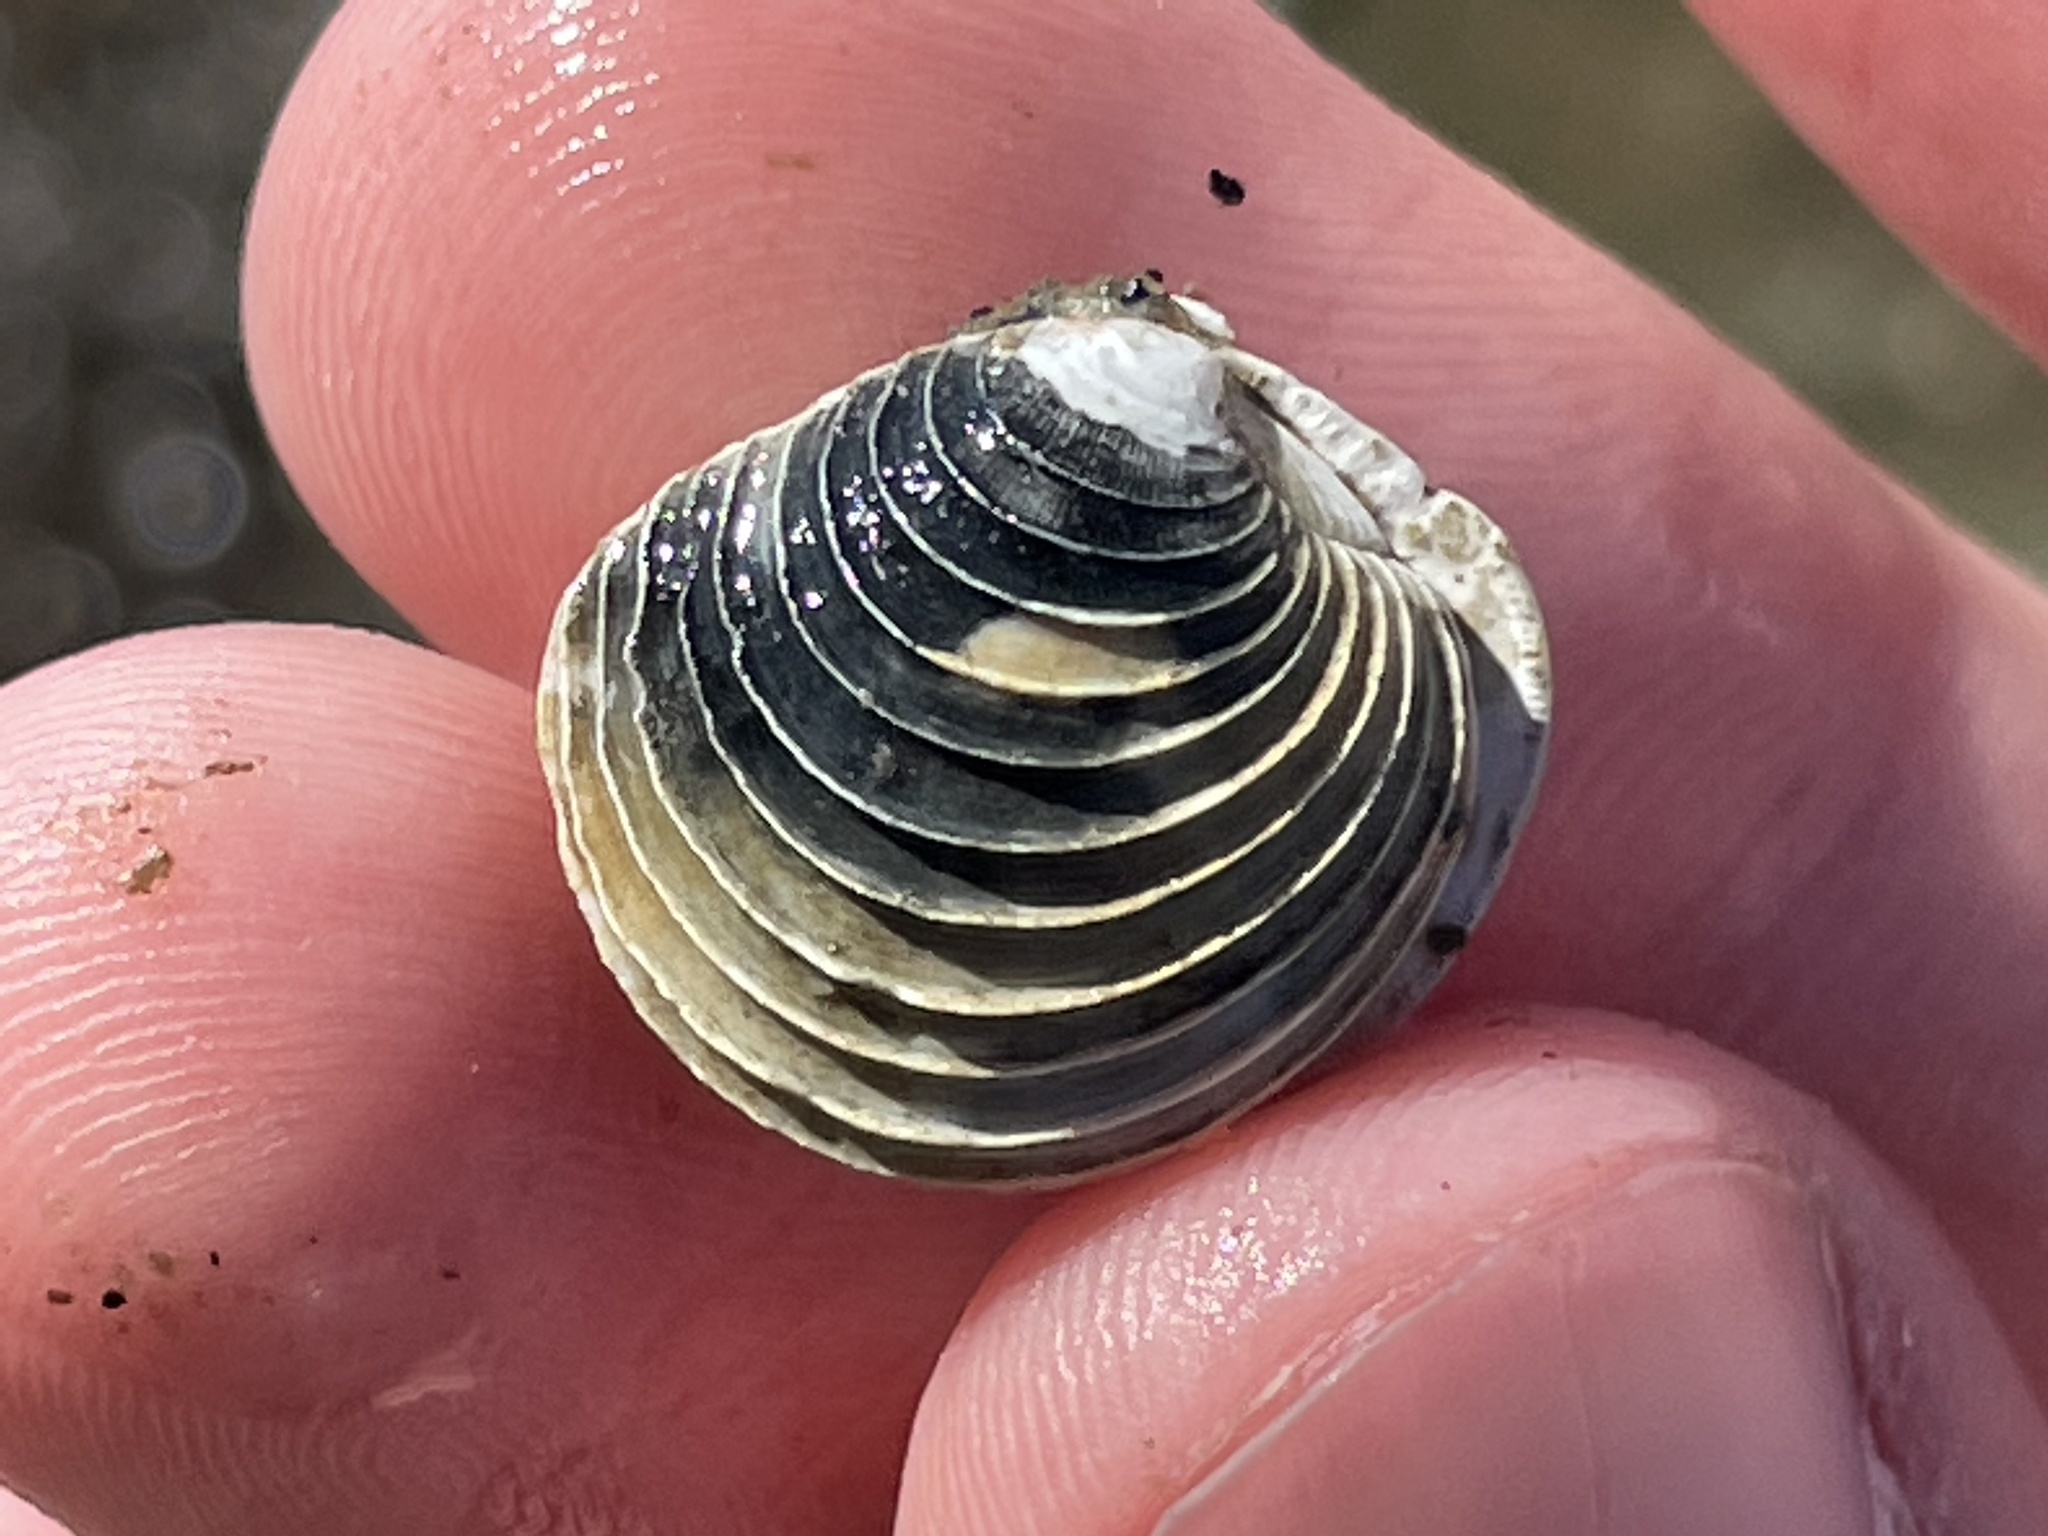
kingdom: Animalia
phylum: Mollusca
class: Bivalvia
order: Venerida
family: Veneridae
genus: Mercenaria
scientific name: Mercenaria mercenaria
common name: American hard-shelled clam
